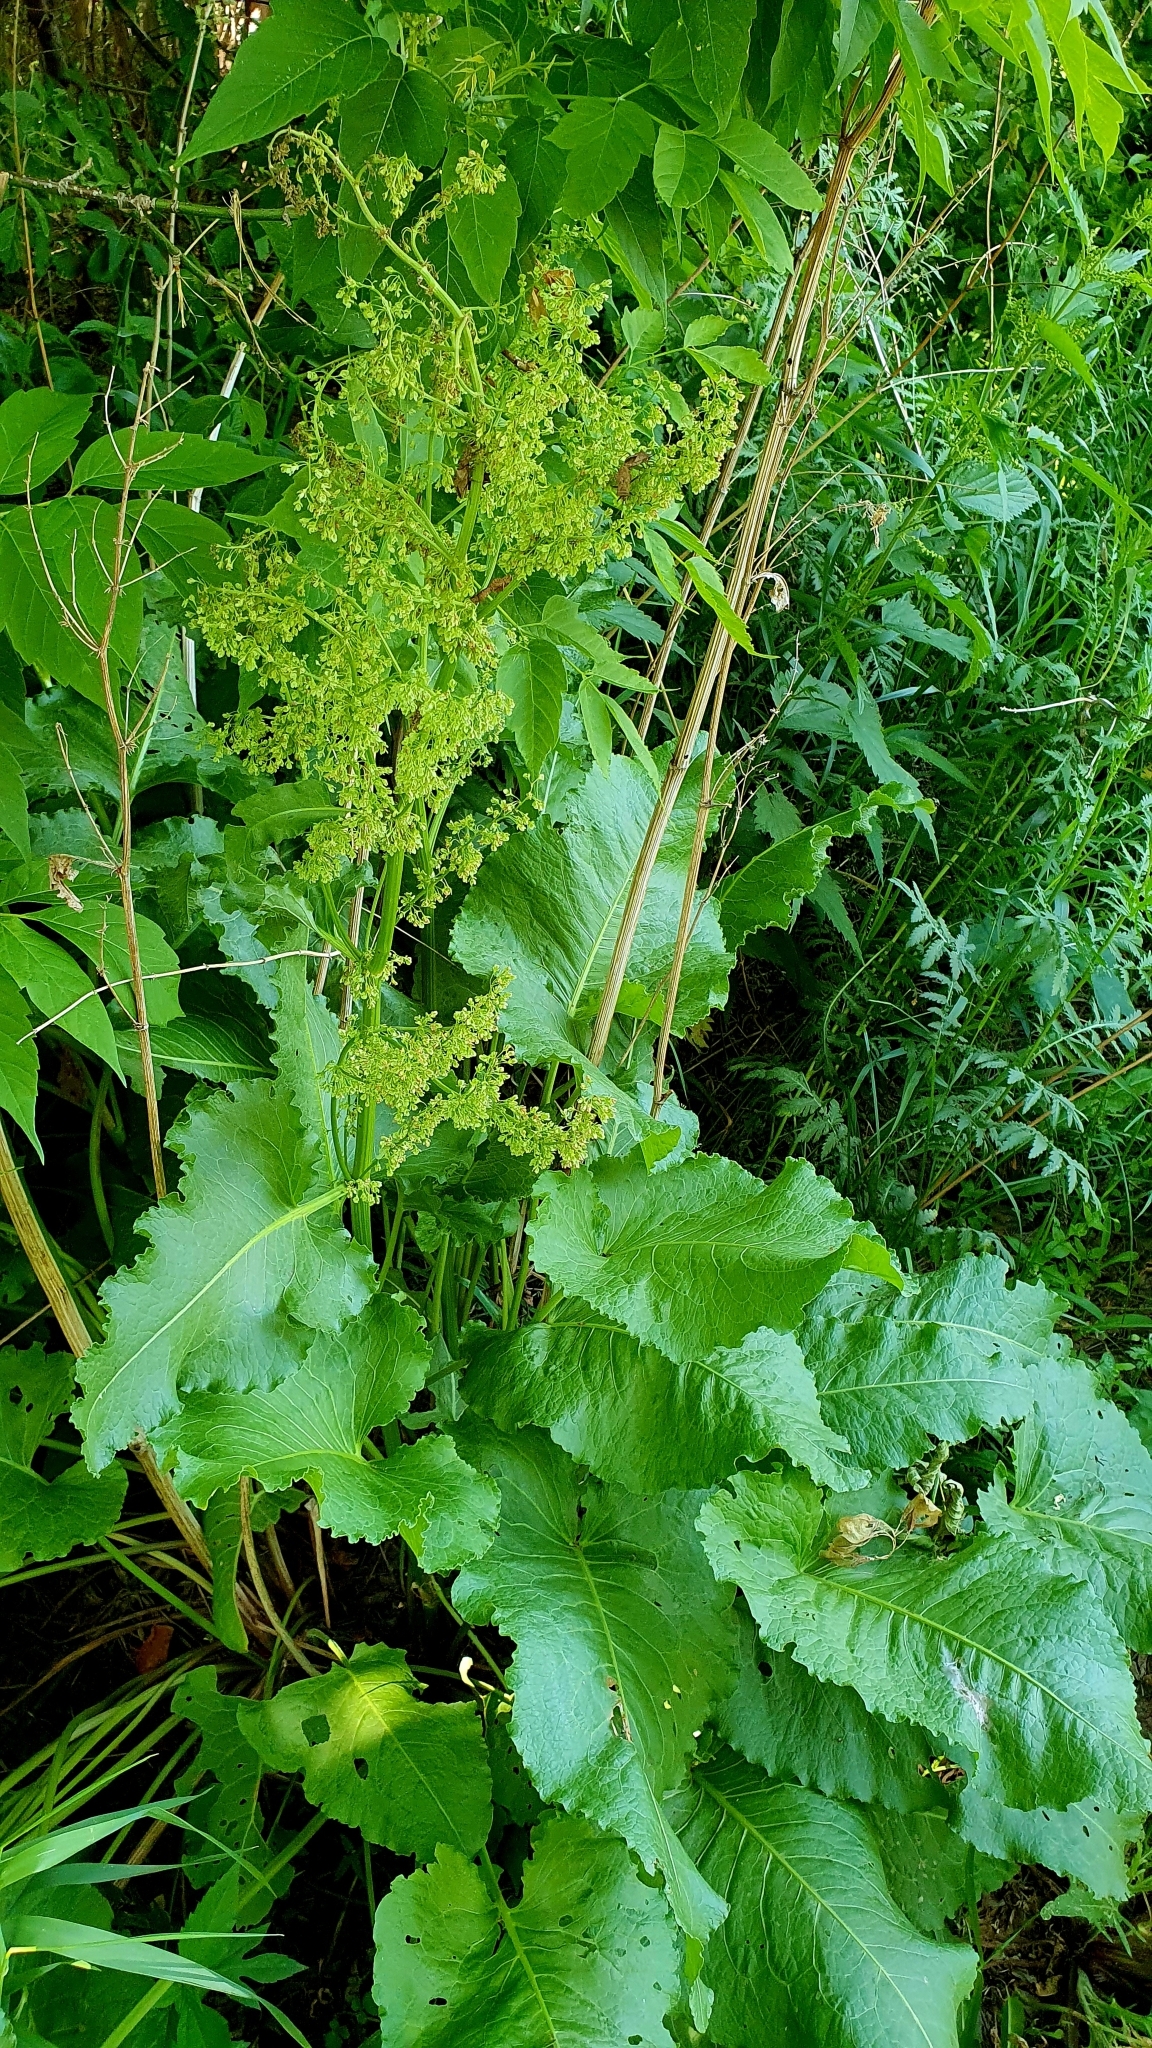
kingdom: Plantae
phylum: Tracheophyta
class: Magnoliopsida
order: Caryophyllales
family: Polygonaceae
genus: Rumex
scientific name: Rumex confertus
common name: Russian dock
